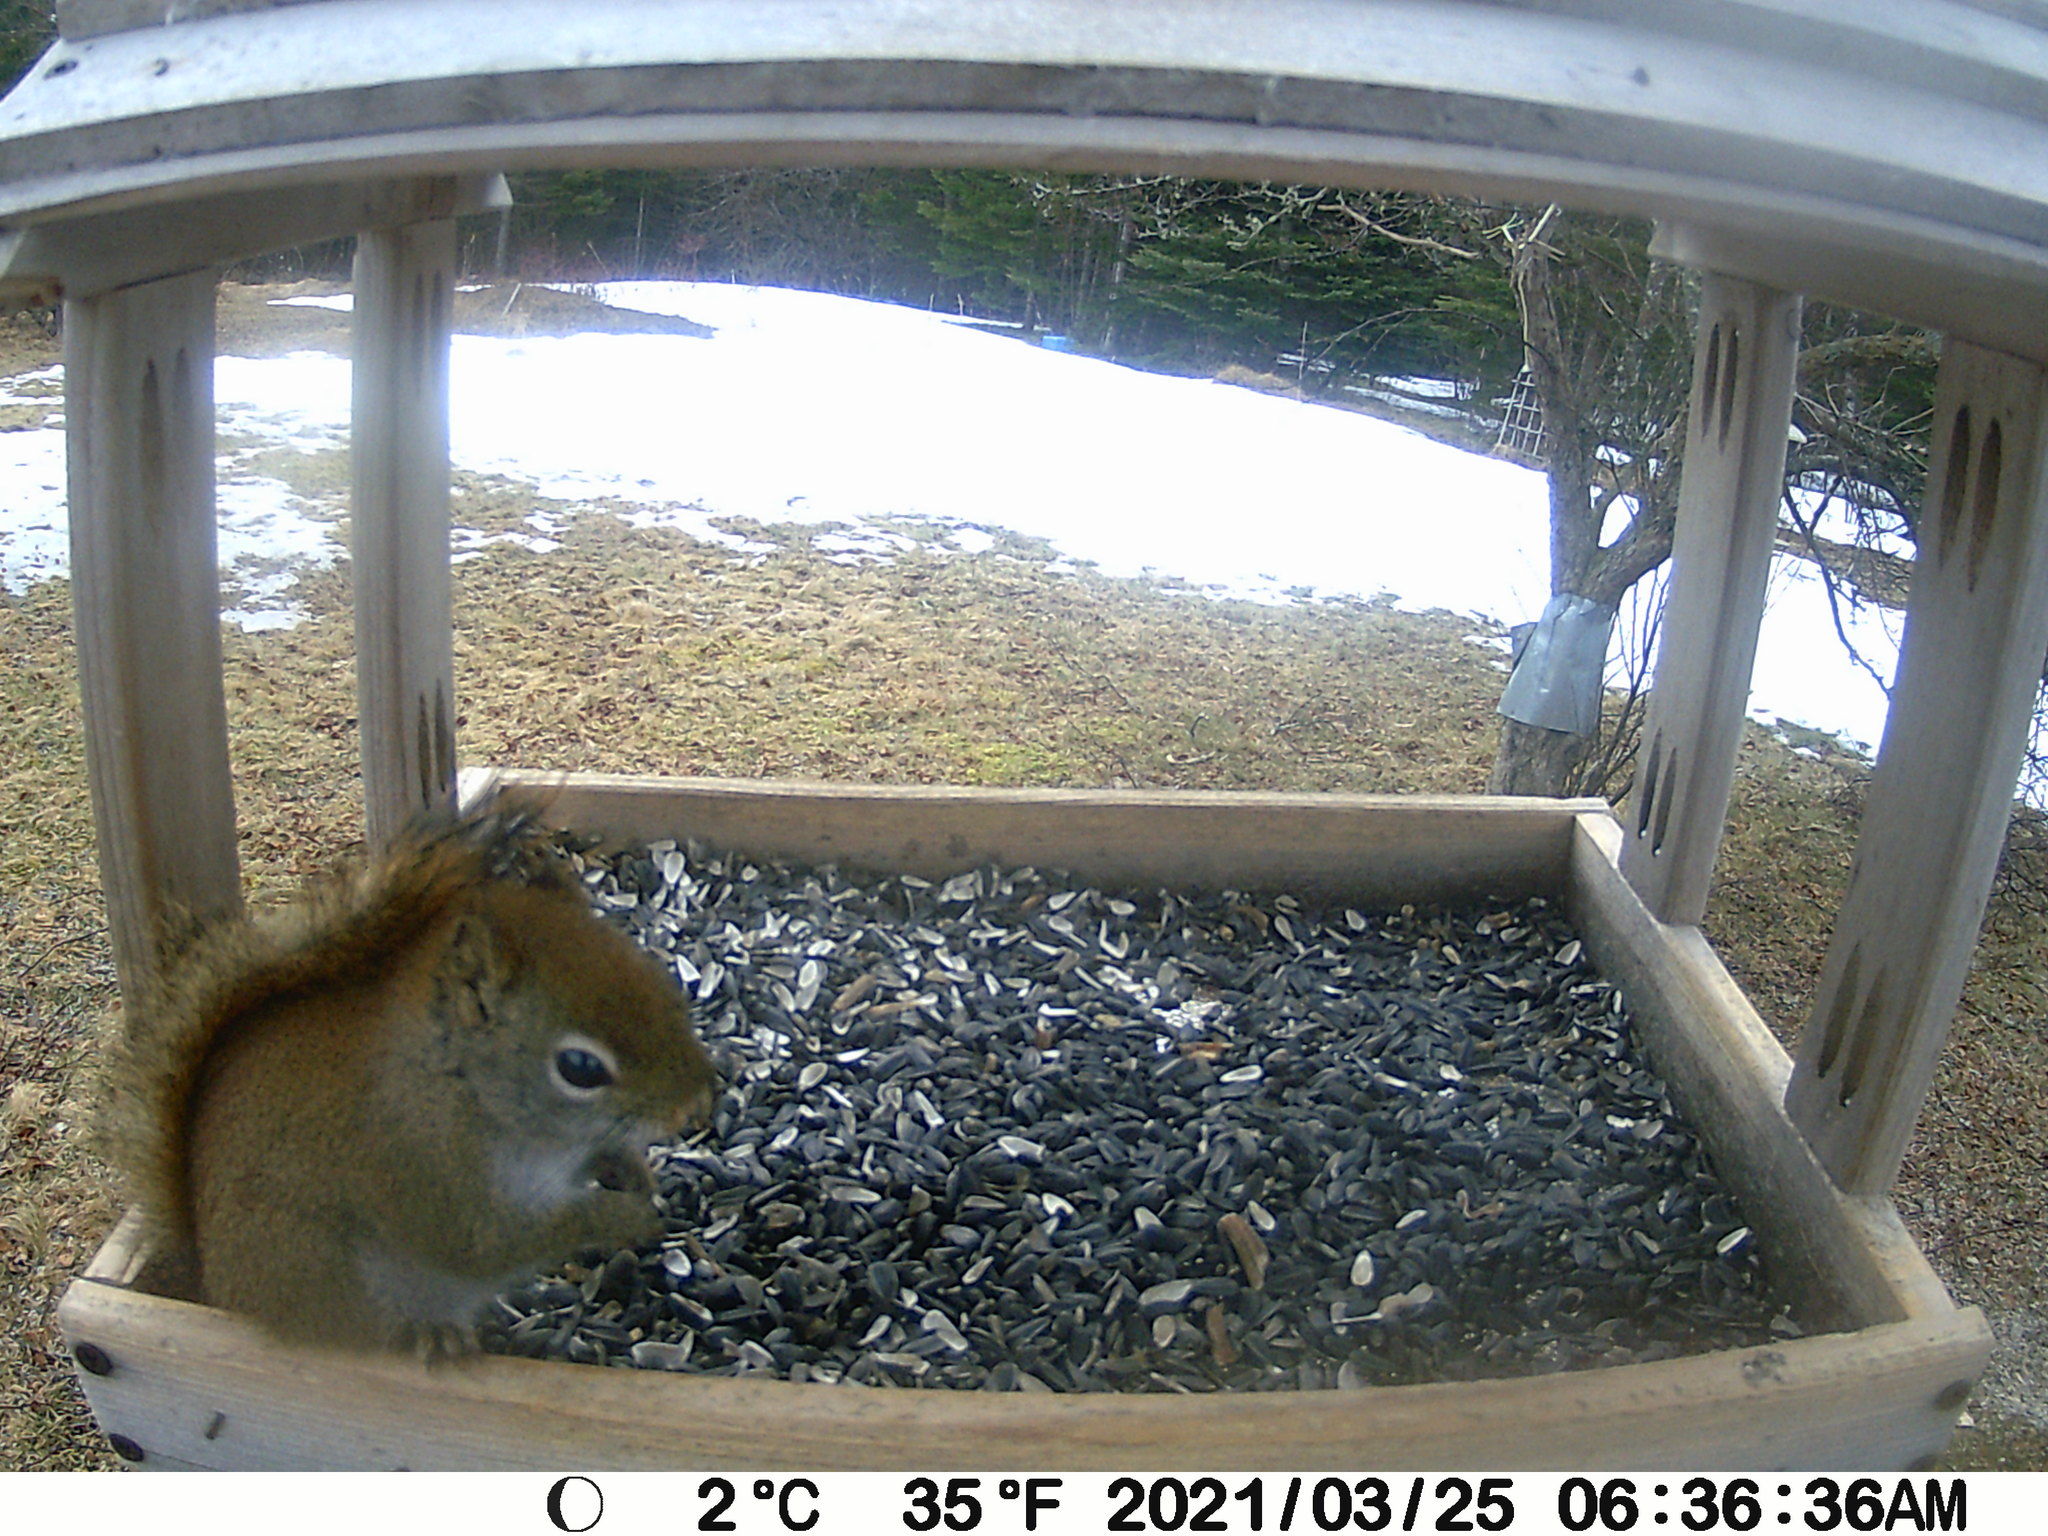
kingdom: Animalia
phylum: Chordata
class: Mammalia
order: Rodentia
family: Sciuridae
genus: Tamiasciurus
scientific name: Tamiasciurus hudsonicus
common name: Red squirrel
